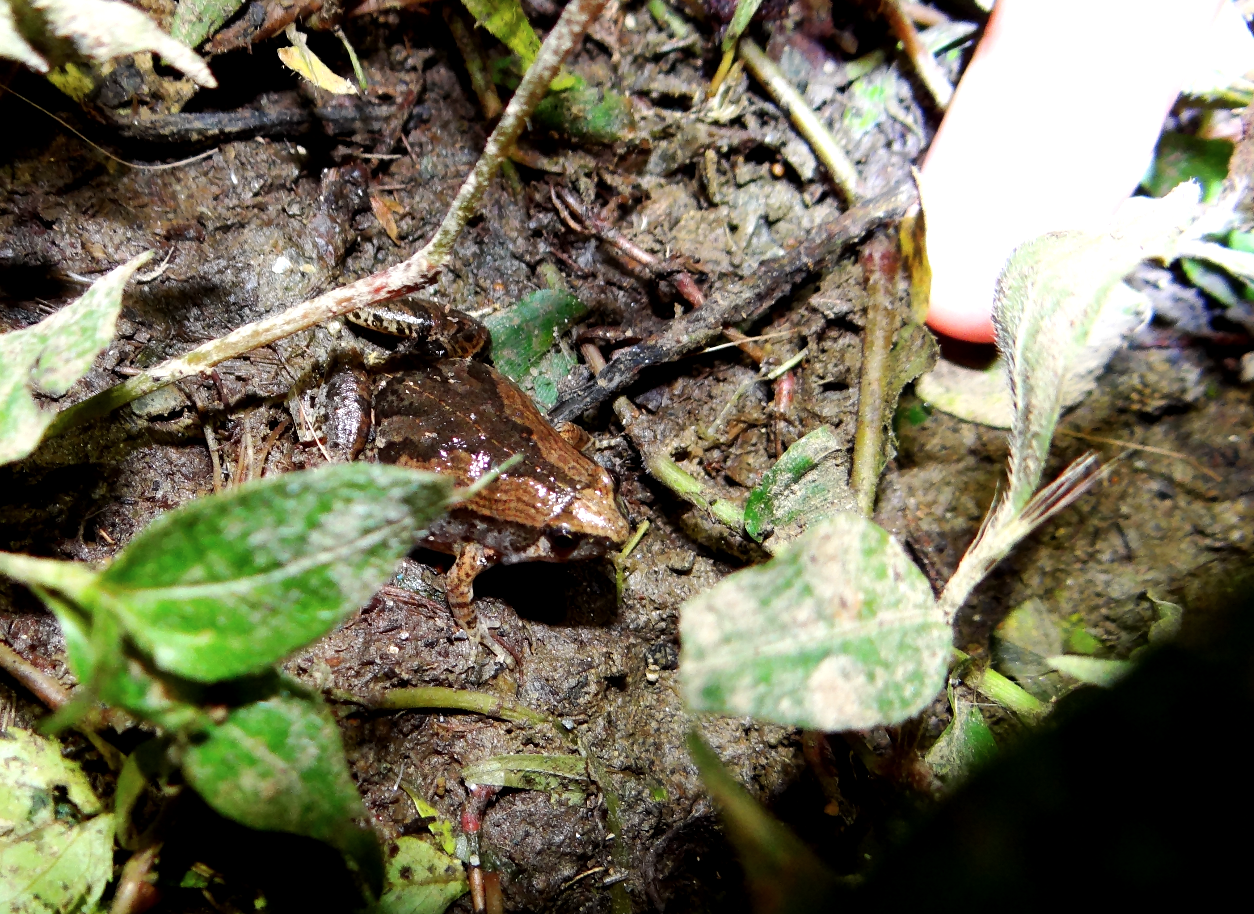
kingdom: Animalia
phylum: Chordata
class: Amphibia
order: Anura
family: Microhylidae
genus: Microhyla
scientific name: Microhyla fissipes
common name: Ornate narrow-mouthed frog
